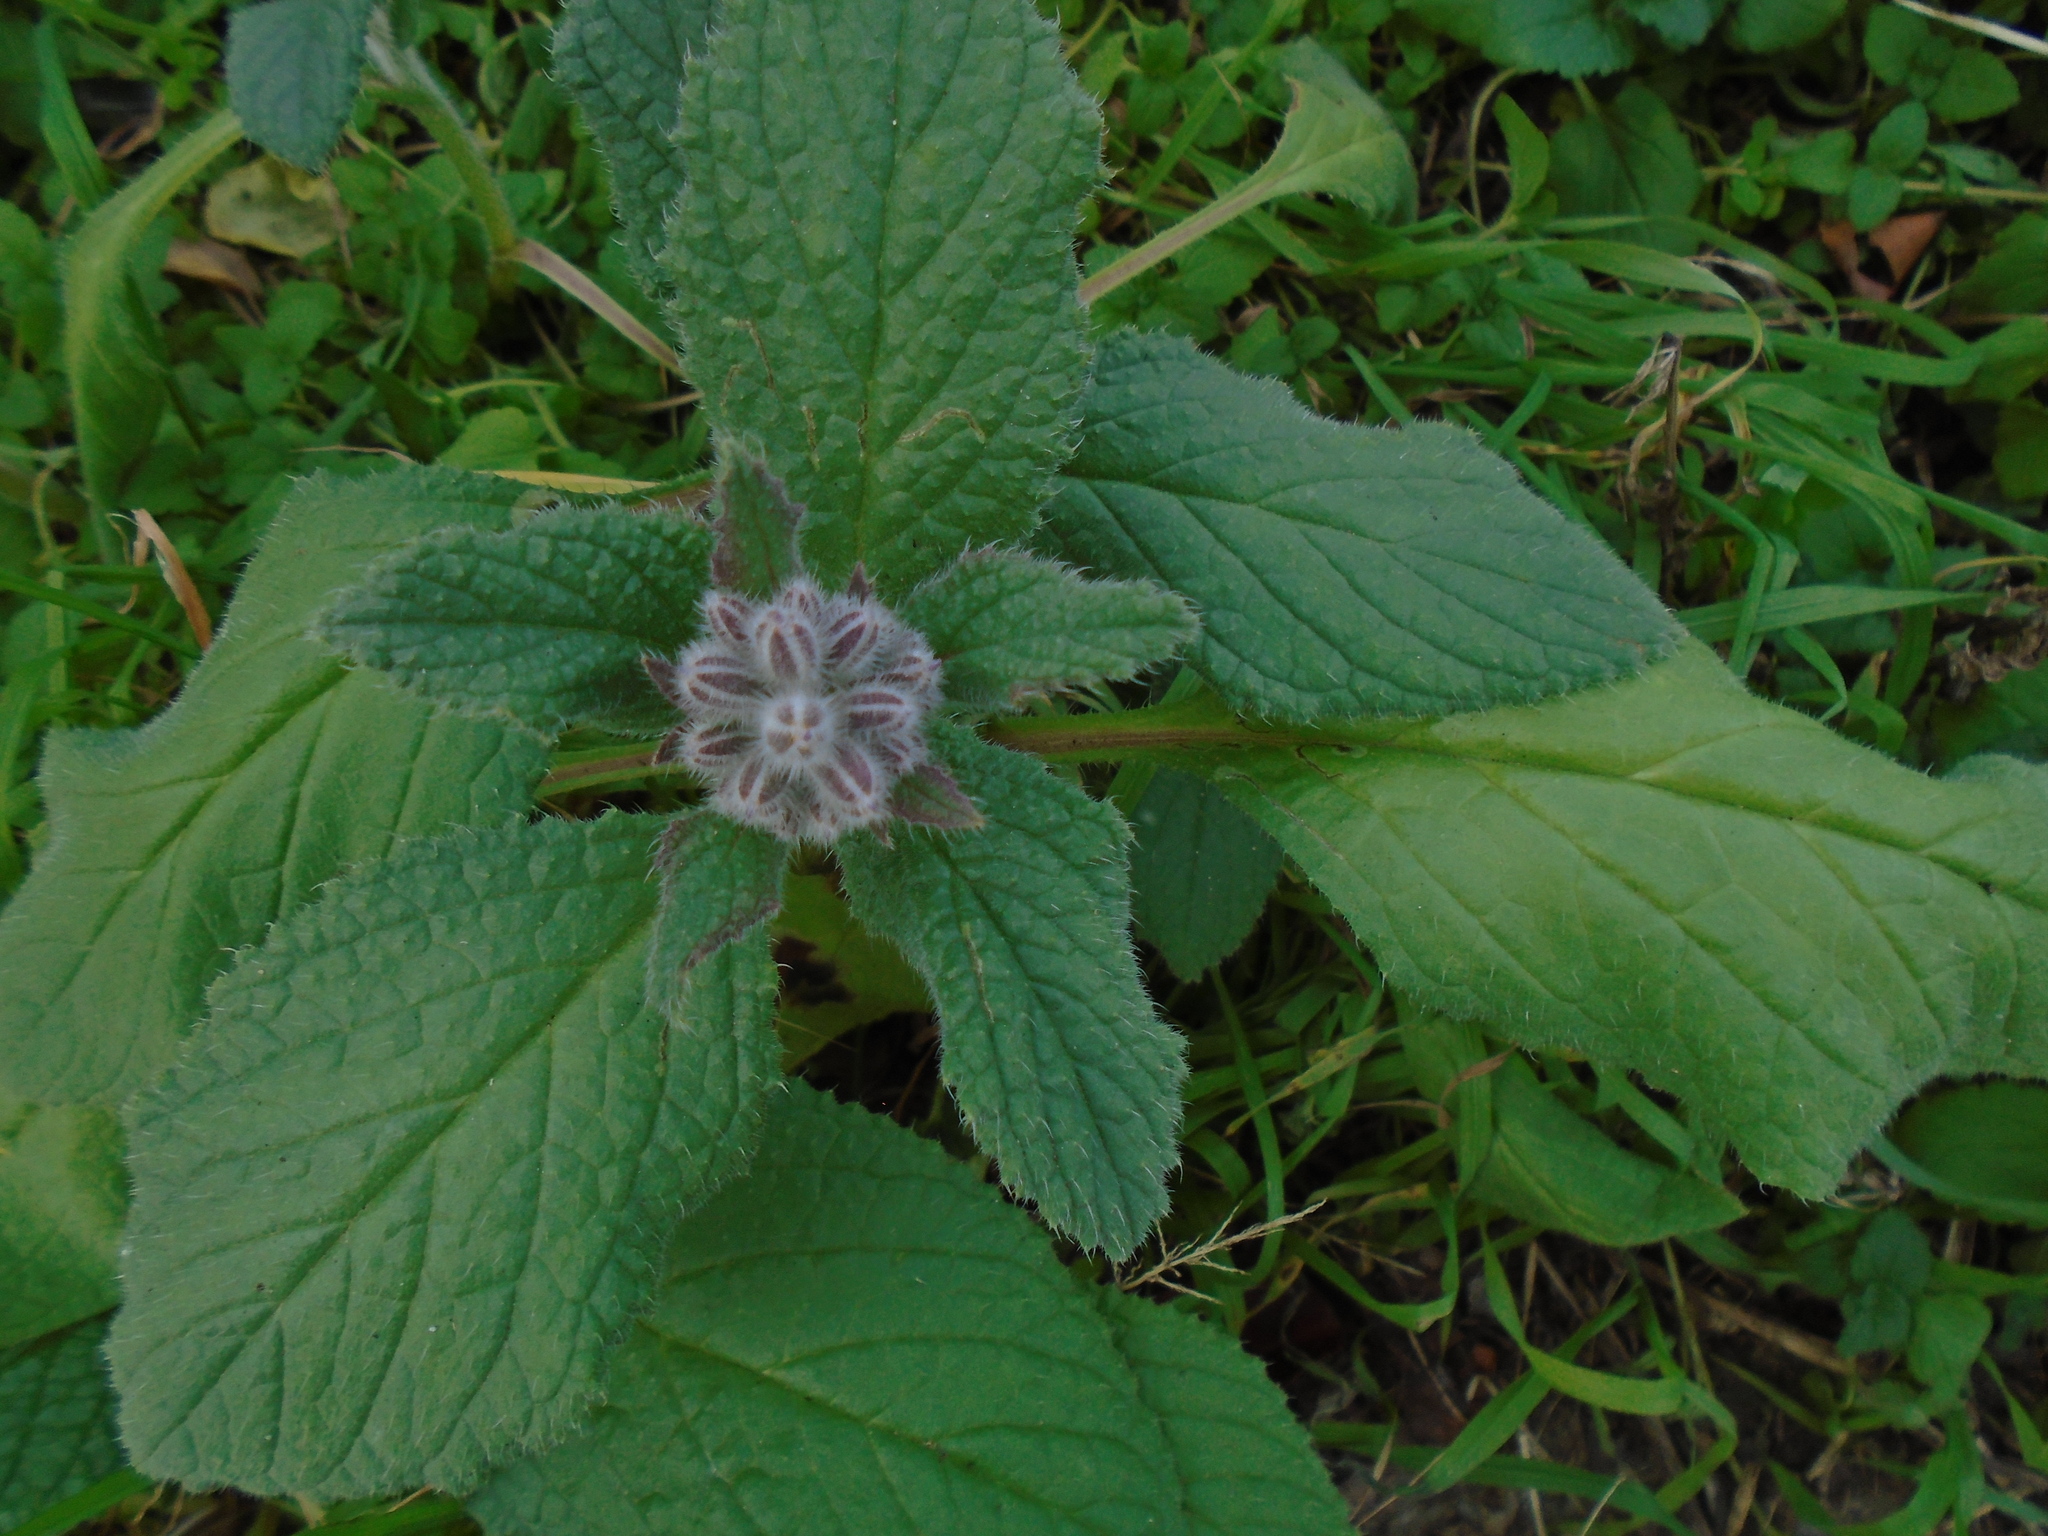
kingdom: Plantae
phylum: Tracheophyta
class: Magnoliopsida
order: Boraginales
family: Boraginaceae
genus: Borago
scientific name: Borago officinalis
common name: Borage
